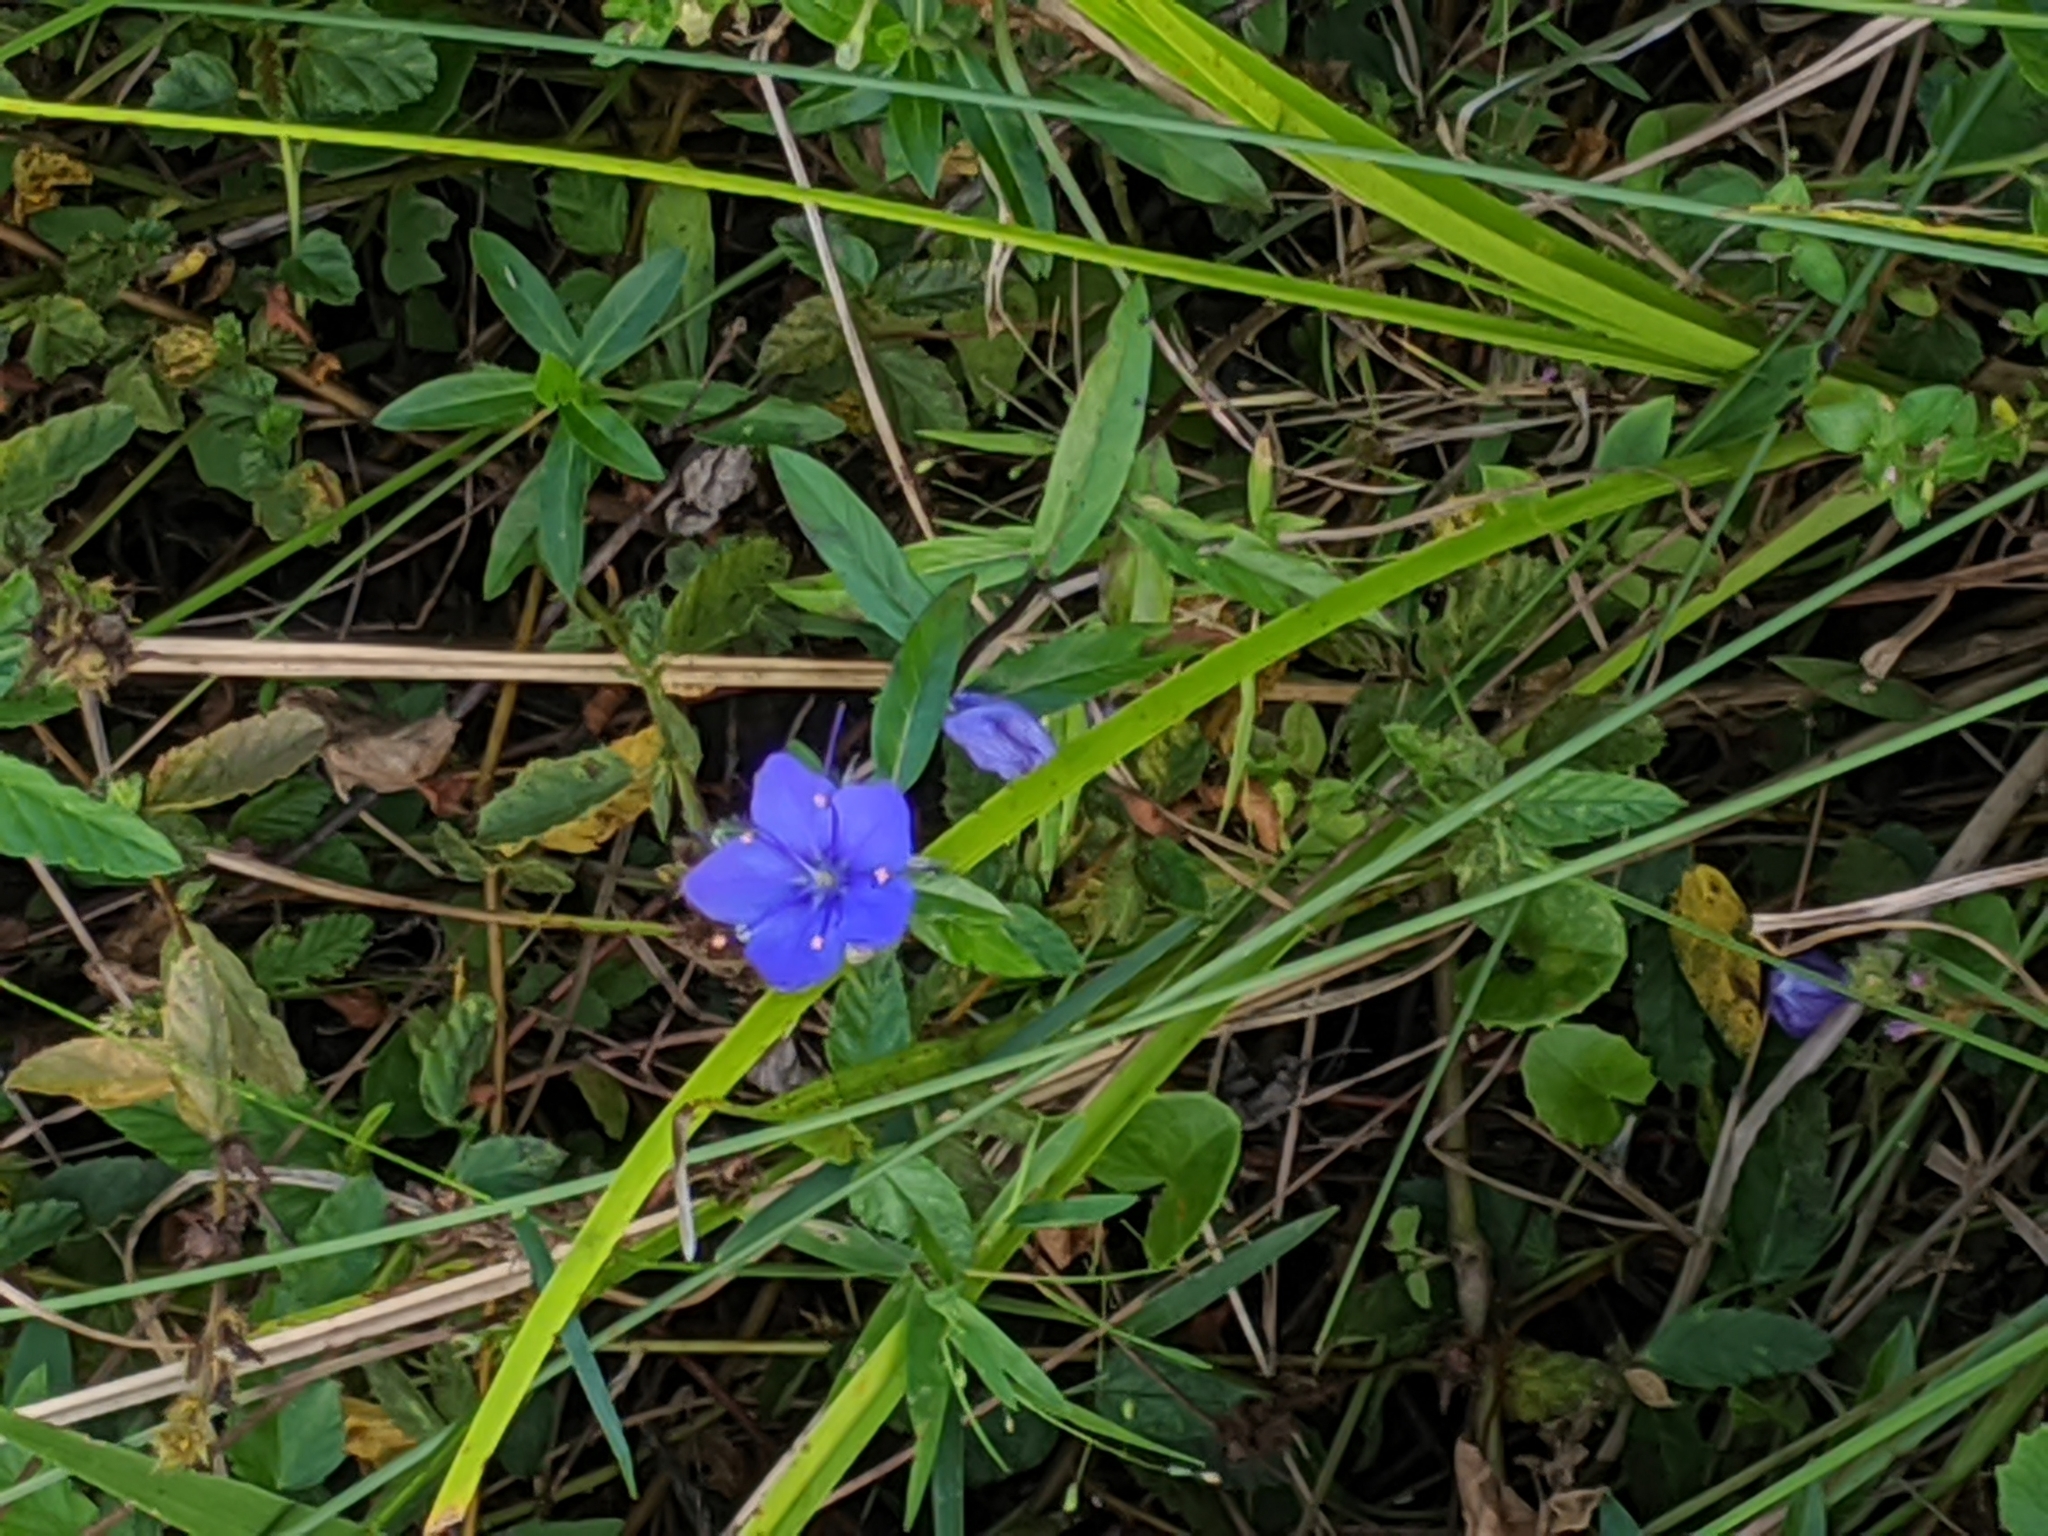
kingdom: Plantae
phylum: Tracheophyta
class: Magnoliopsida
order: Solanales
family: Hydroleaceae
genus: Hydrolea
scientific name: Hydrolea corymbosa
